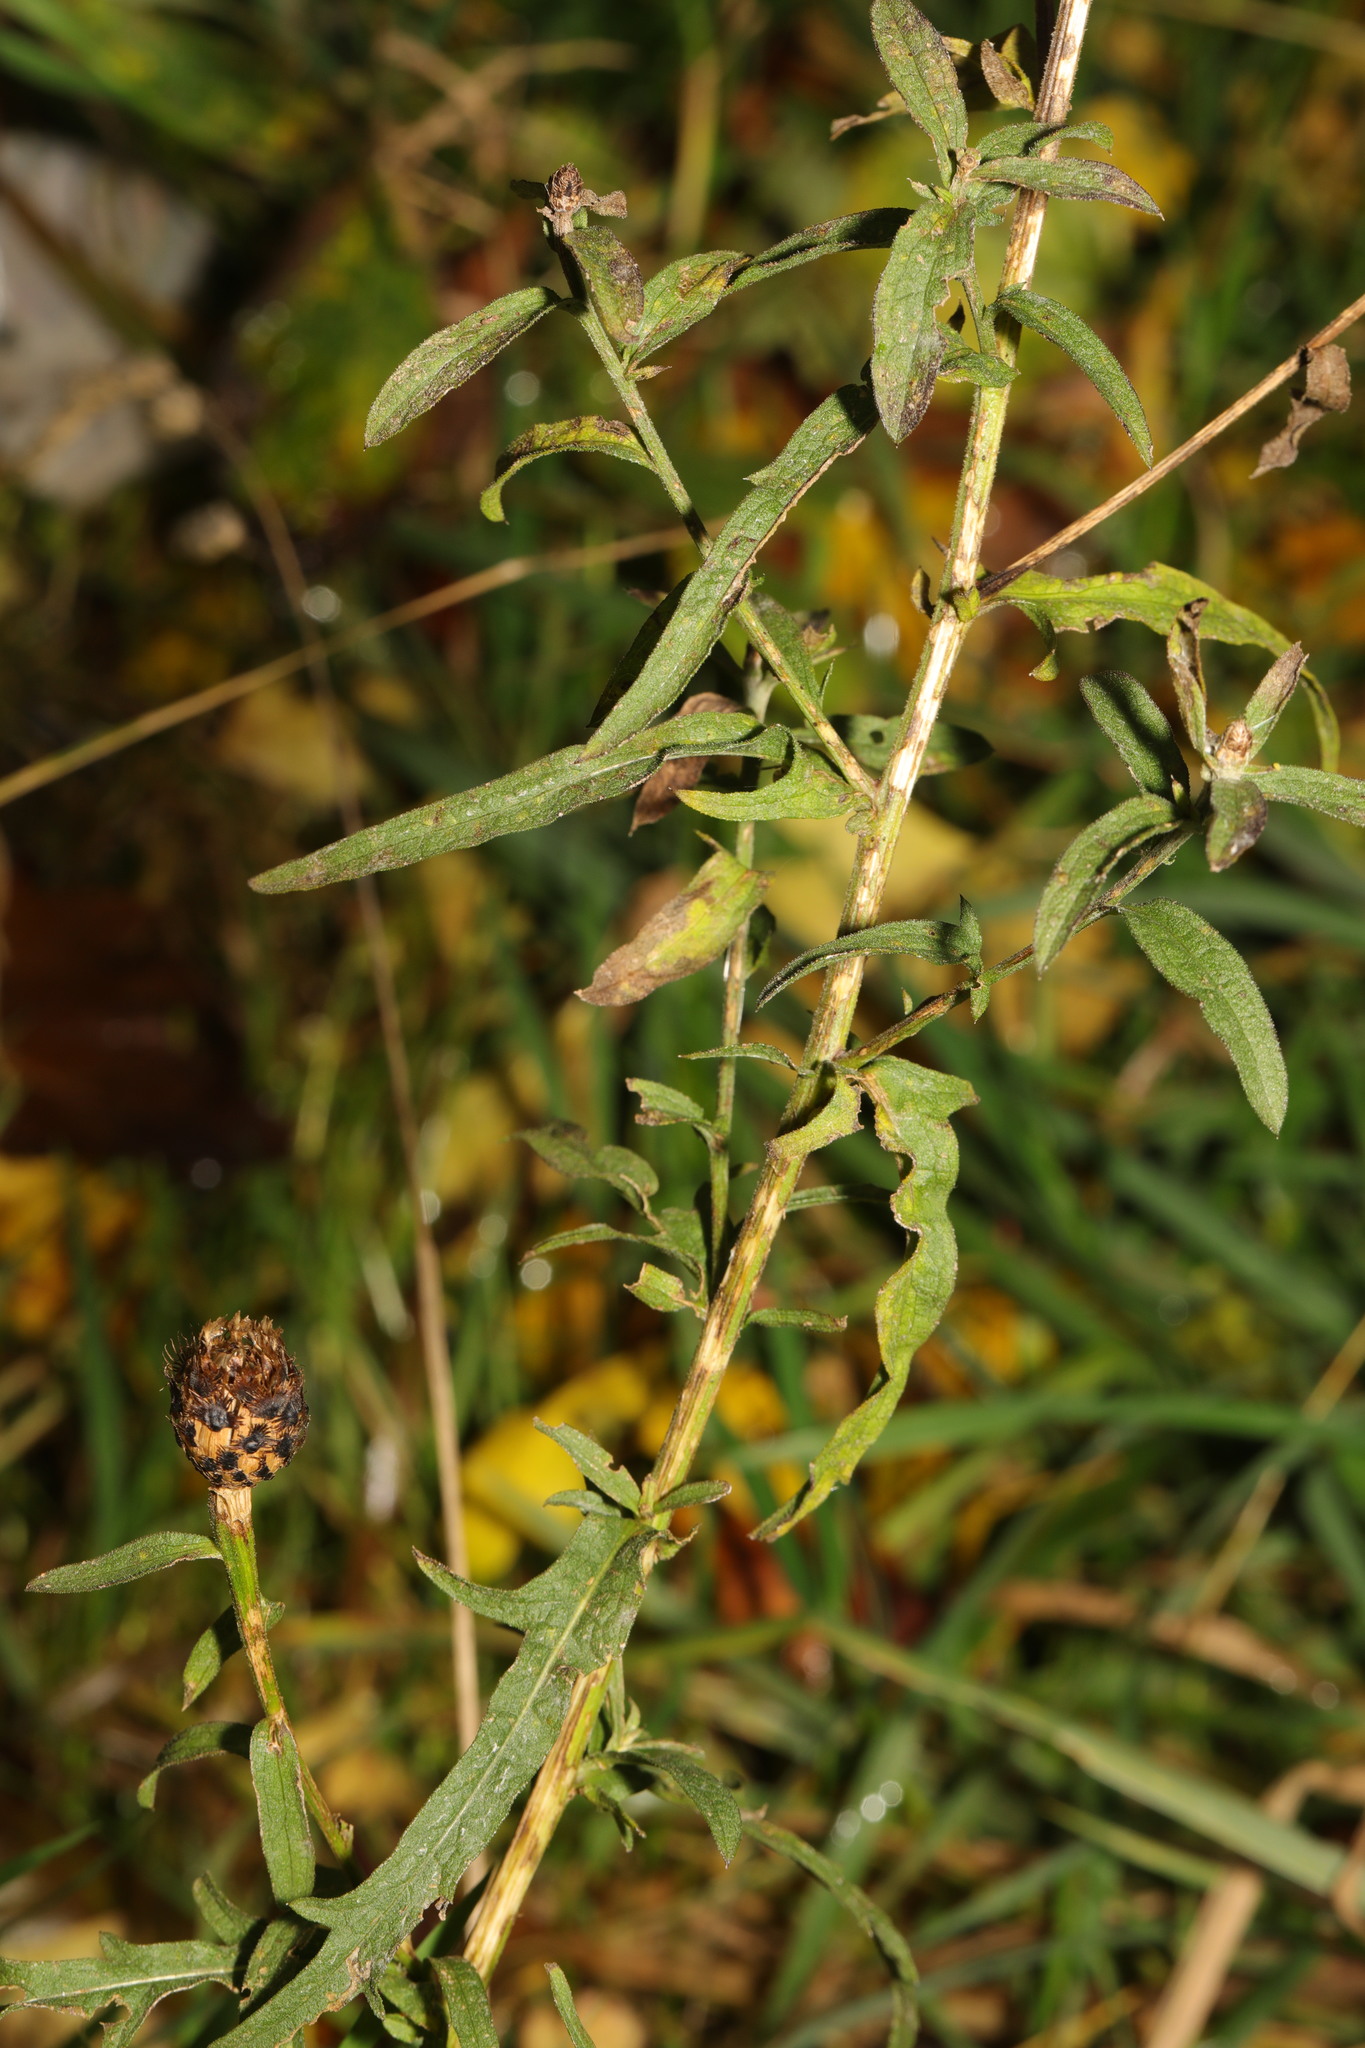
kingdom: Plantae
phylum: Tracheophyta
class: Magnoliopsida
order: Asterales
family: Asteraceae
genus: Centaurea
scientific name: Centaurea nigra
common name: Lesser knapweed
